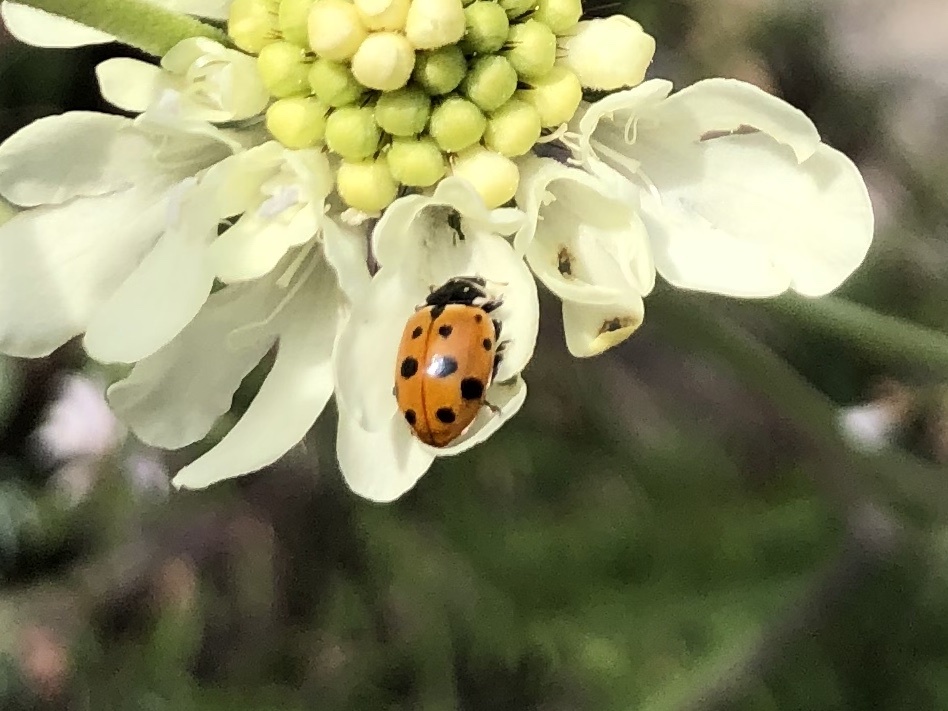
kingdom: Animalia
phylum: Arthropoda
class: Insecta
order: Coleoptera
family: Coccinellidae
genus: Hippodamia
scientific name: Hippodamia variegata
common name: Ladybird beetle
